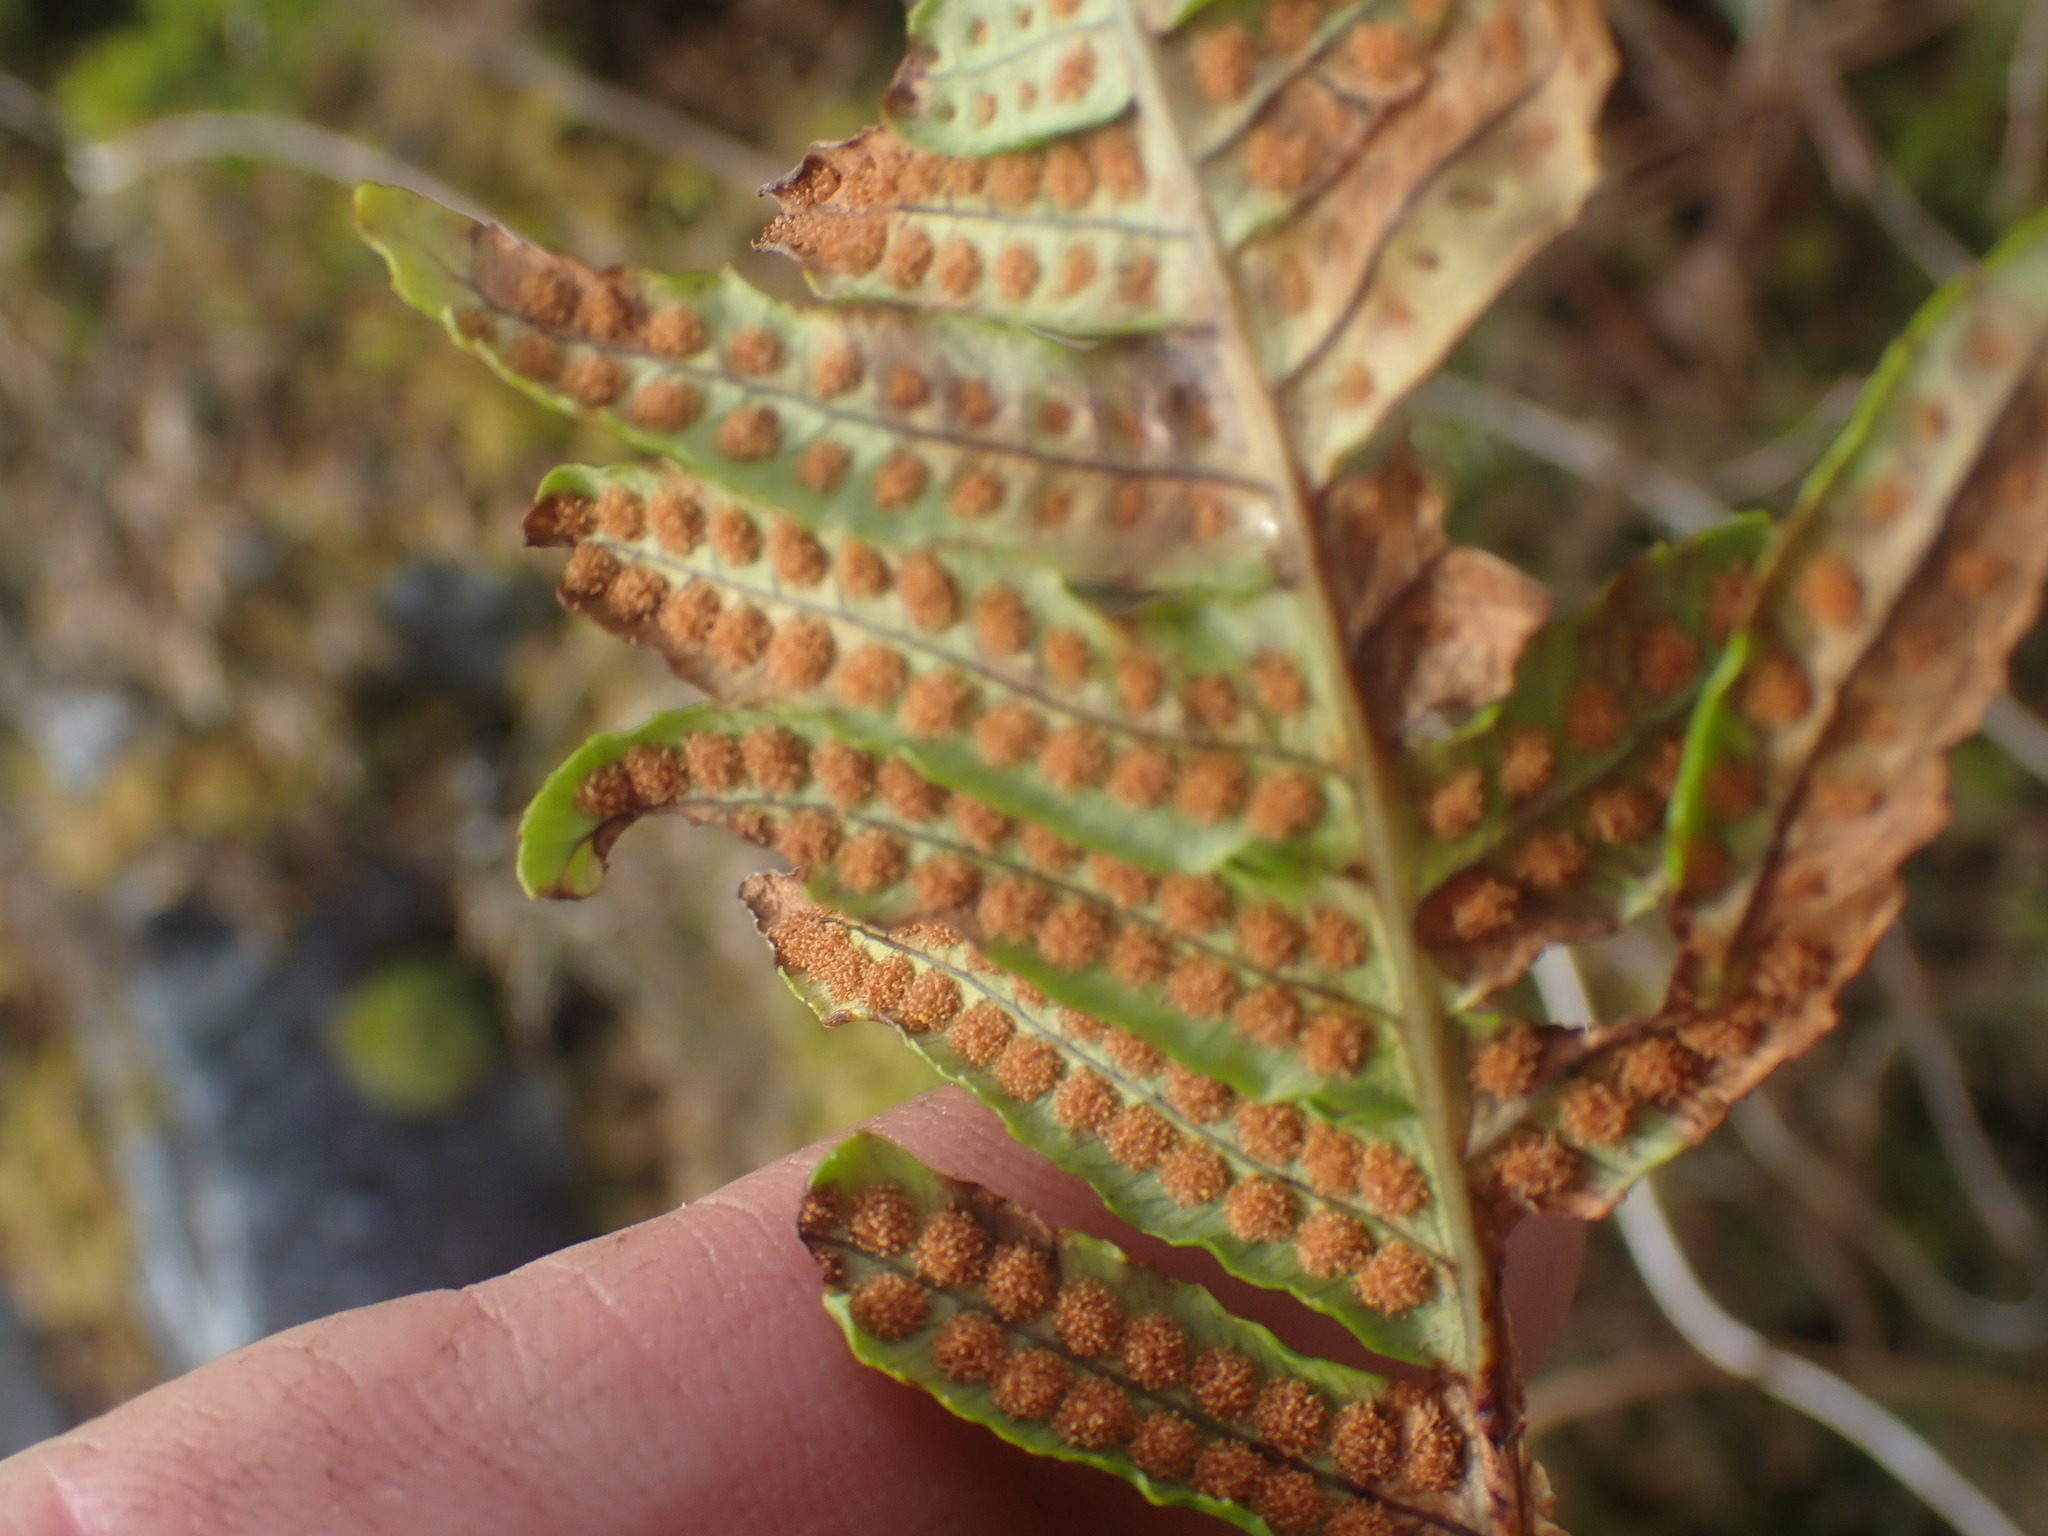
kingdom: Plantae
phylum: Tracheophyta
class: Polypodiopsida
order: Polypodiales
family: Polypodiaceae
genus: Polypodium
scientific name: Polypodium glycyrrhiza
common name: Licorice fern
